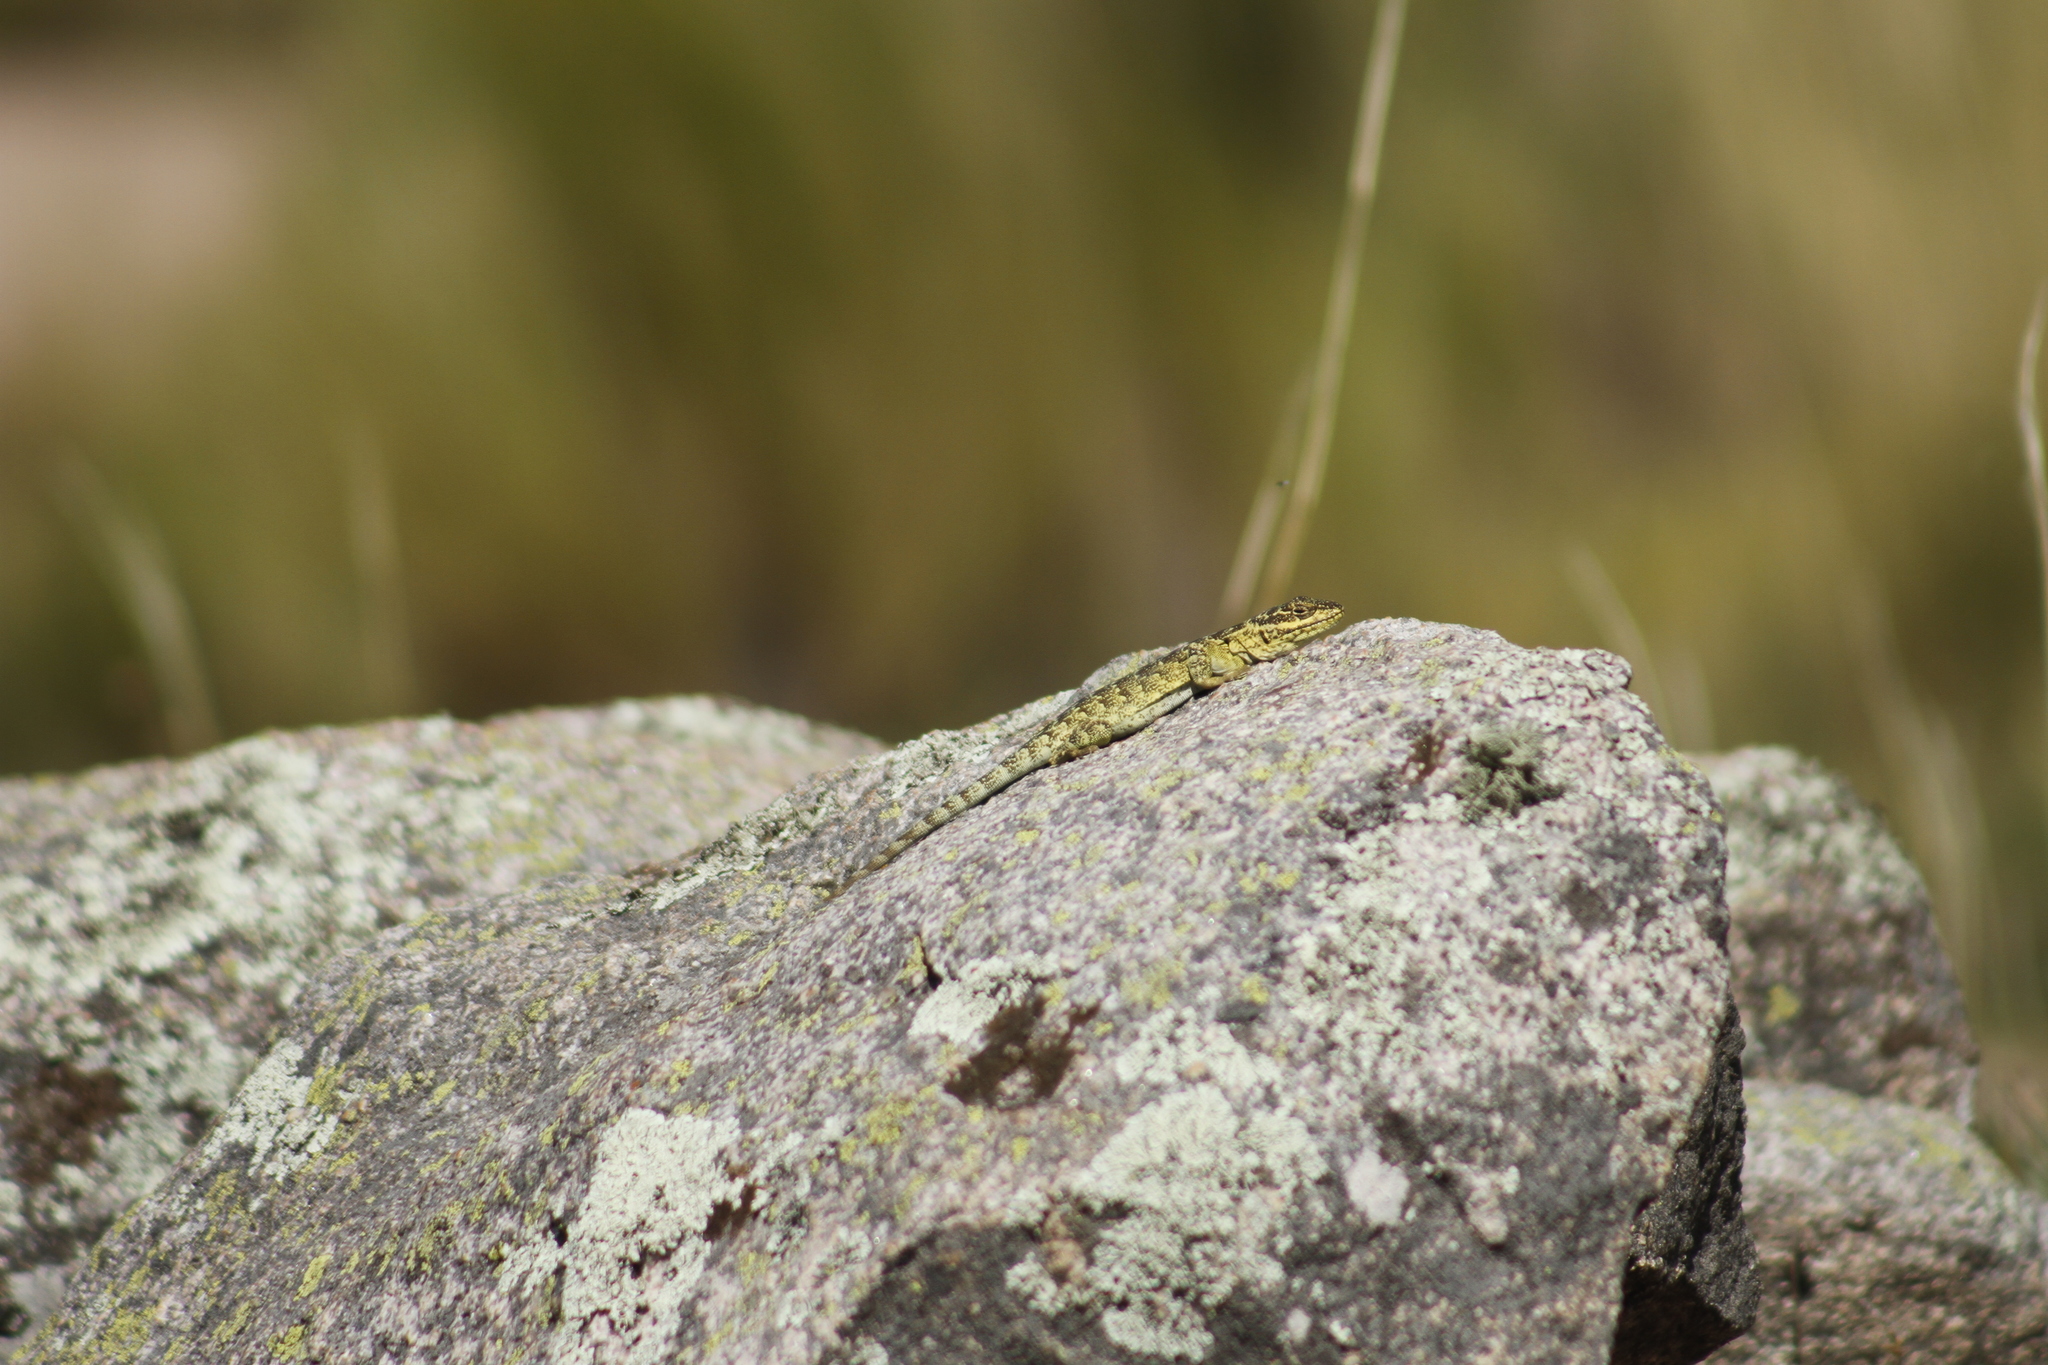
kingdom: Animalia
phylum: Chordata
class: Squamata
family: Leiosauridae
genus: Pristidactylus
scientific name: Pristidactylus achalensis
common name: Argentine anole
